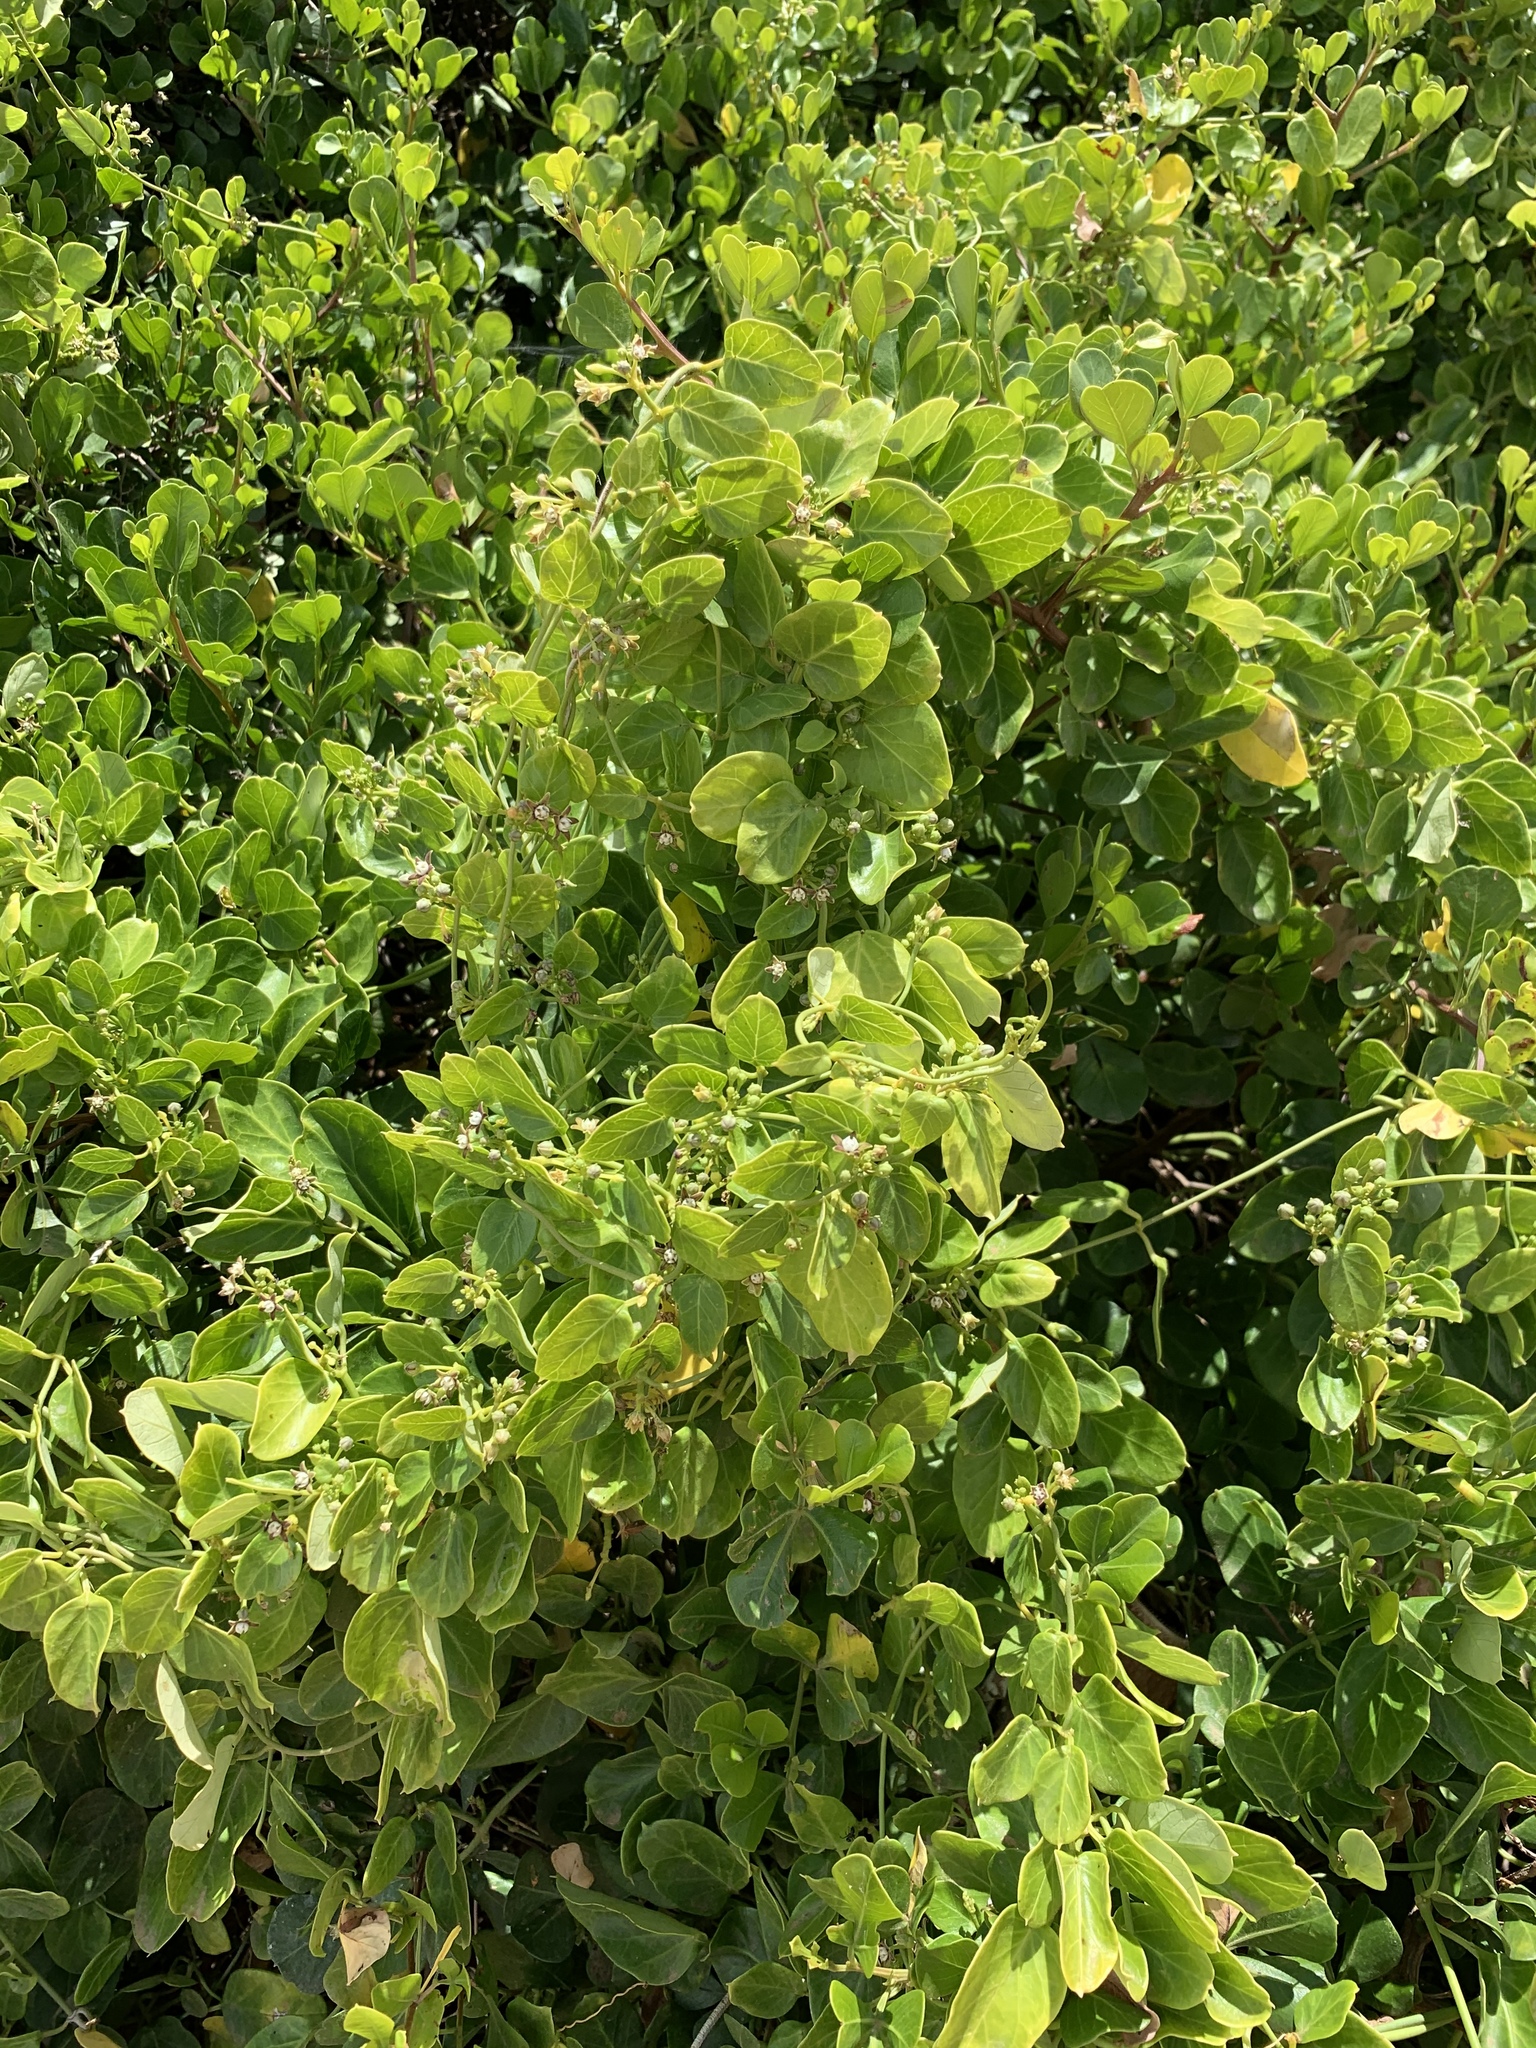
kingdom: Plantae
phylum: Tracheophyta
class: Magnoliopsida
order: Gentianales
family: Apocynaceae
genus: Cynanchum
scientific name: Cynanchum obtusifolium
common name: Monkey-rope
